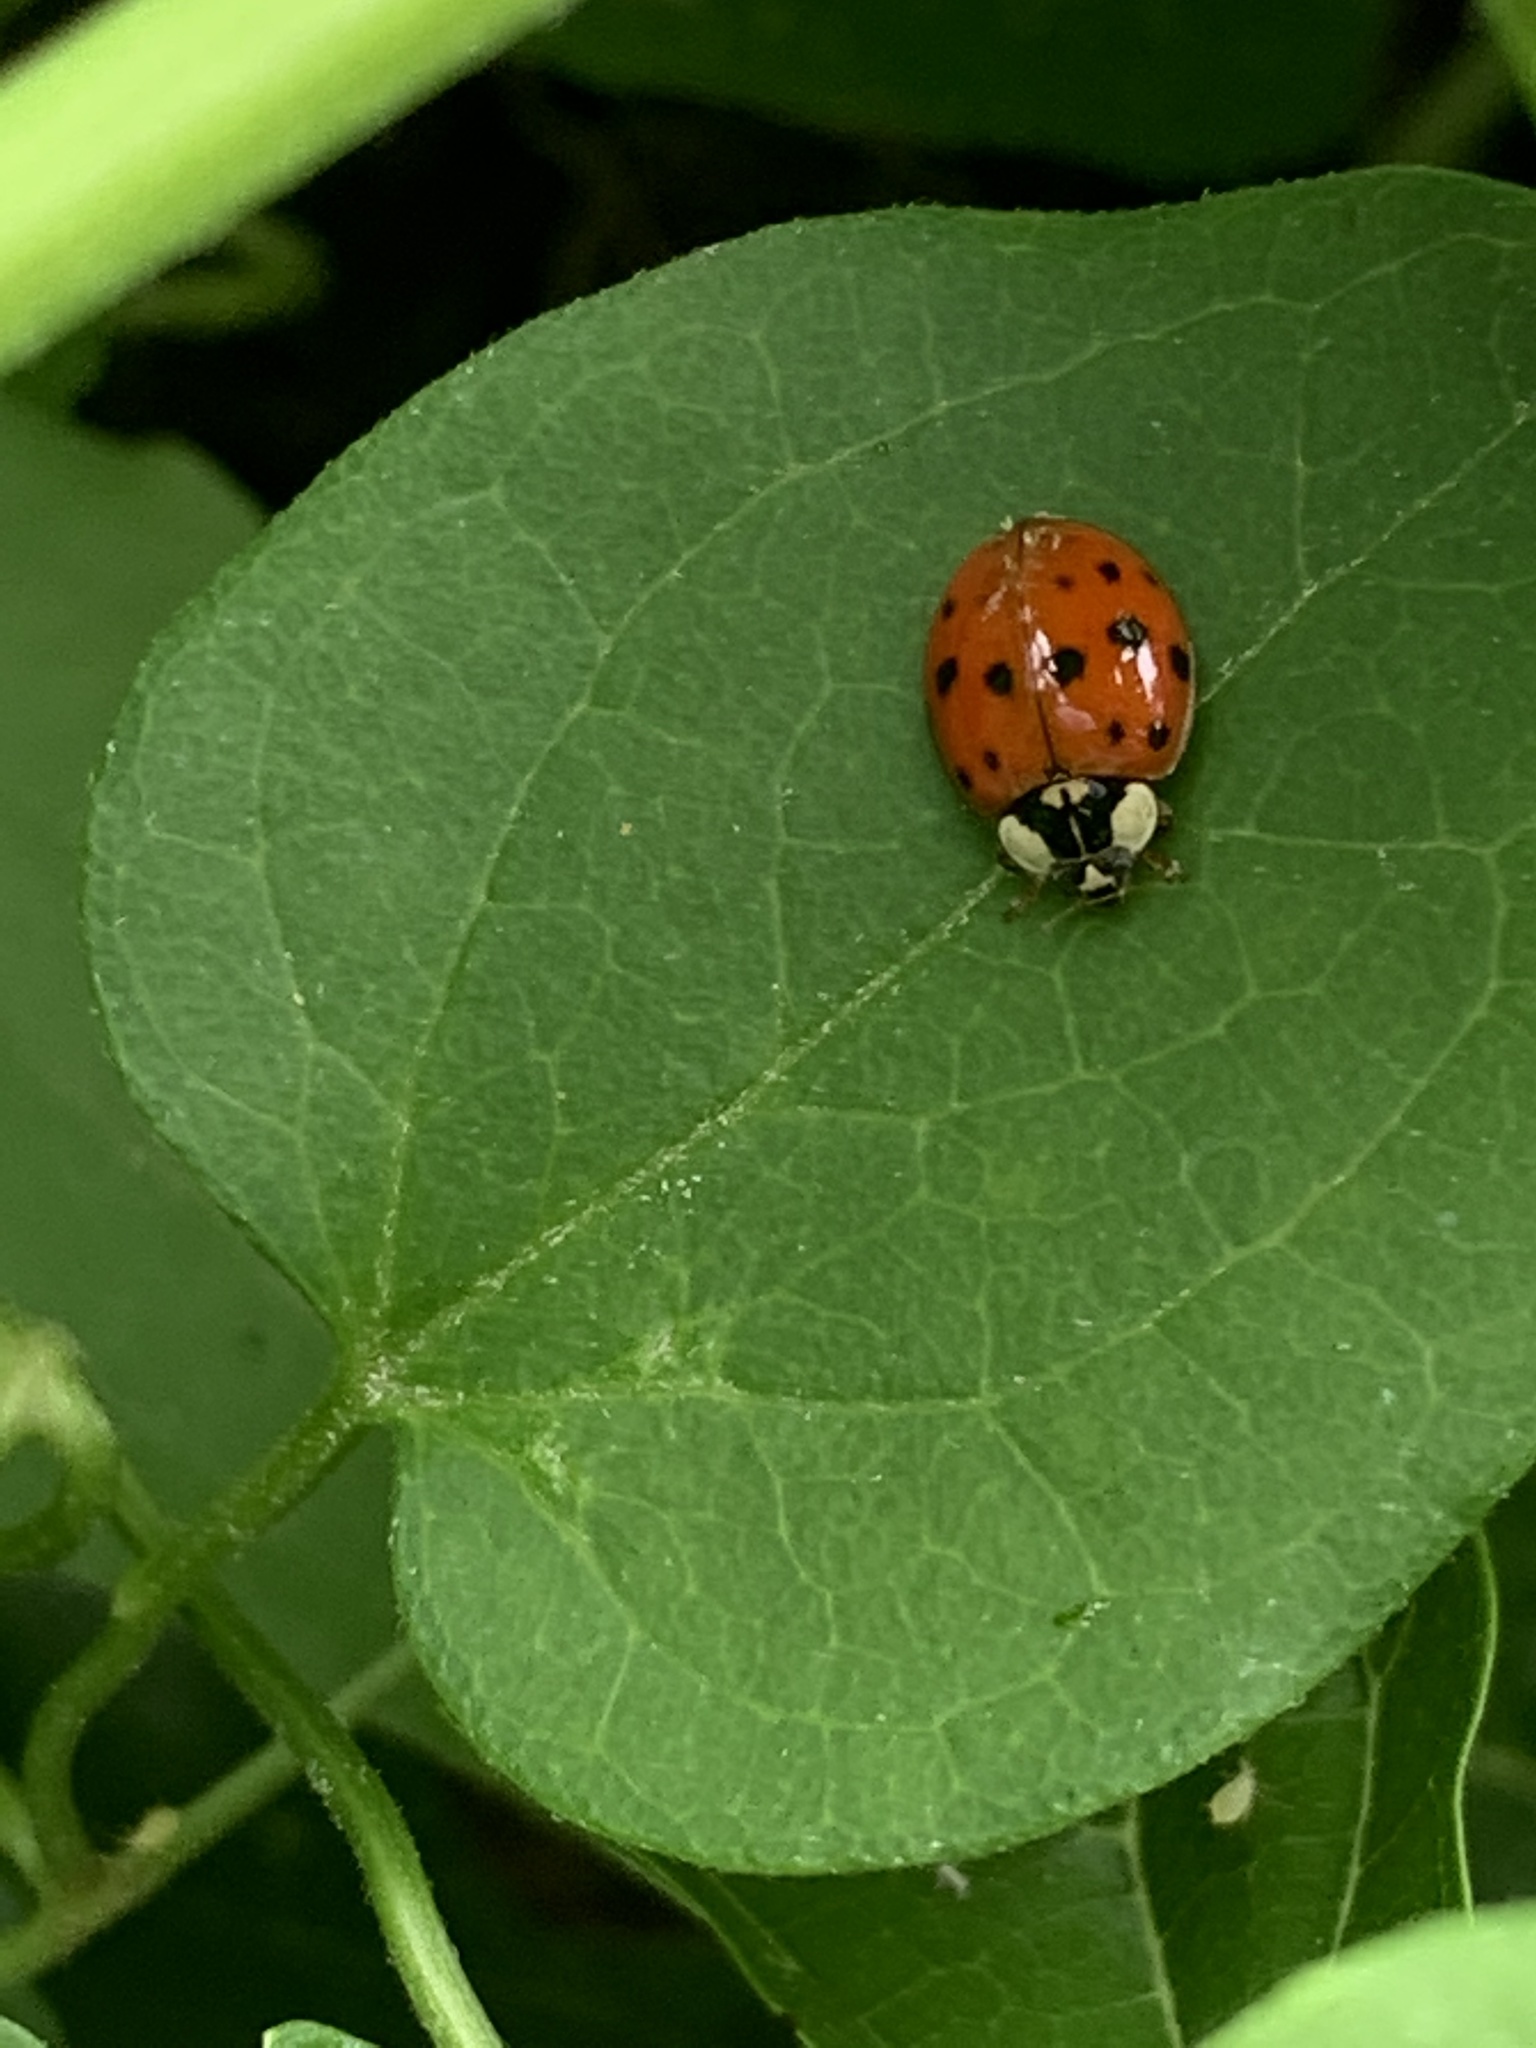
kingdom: Animalia
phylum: Arthropoda
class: Insecta
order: Coleoptera
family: Coccinellidae
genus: Harmonia
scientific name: Harmonia axyridis
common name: Harlequin ladybird
